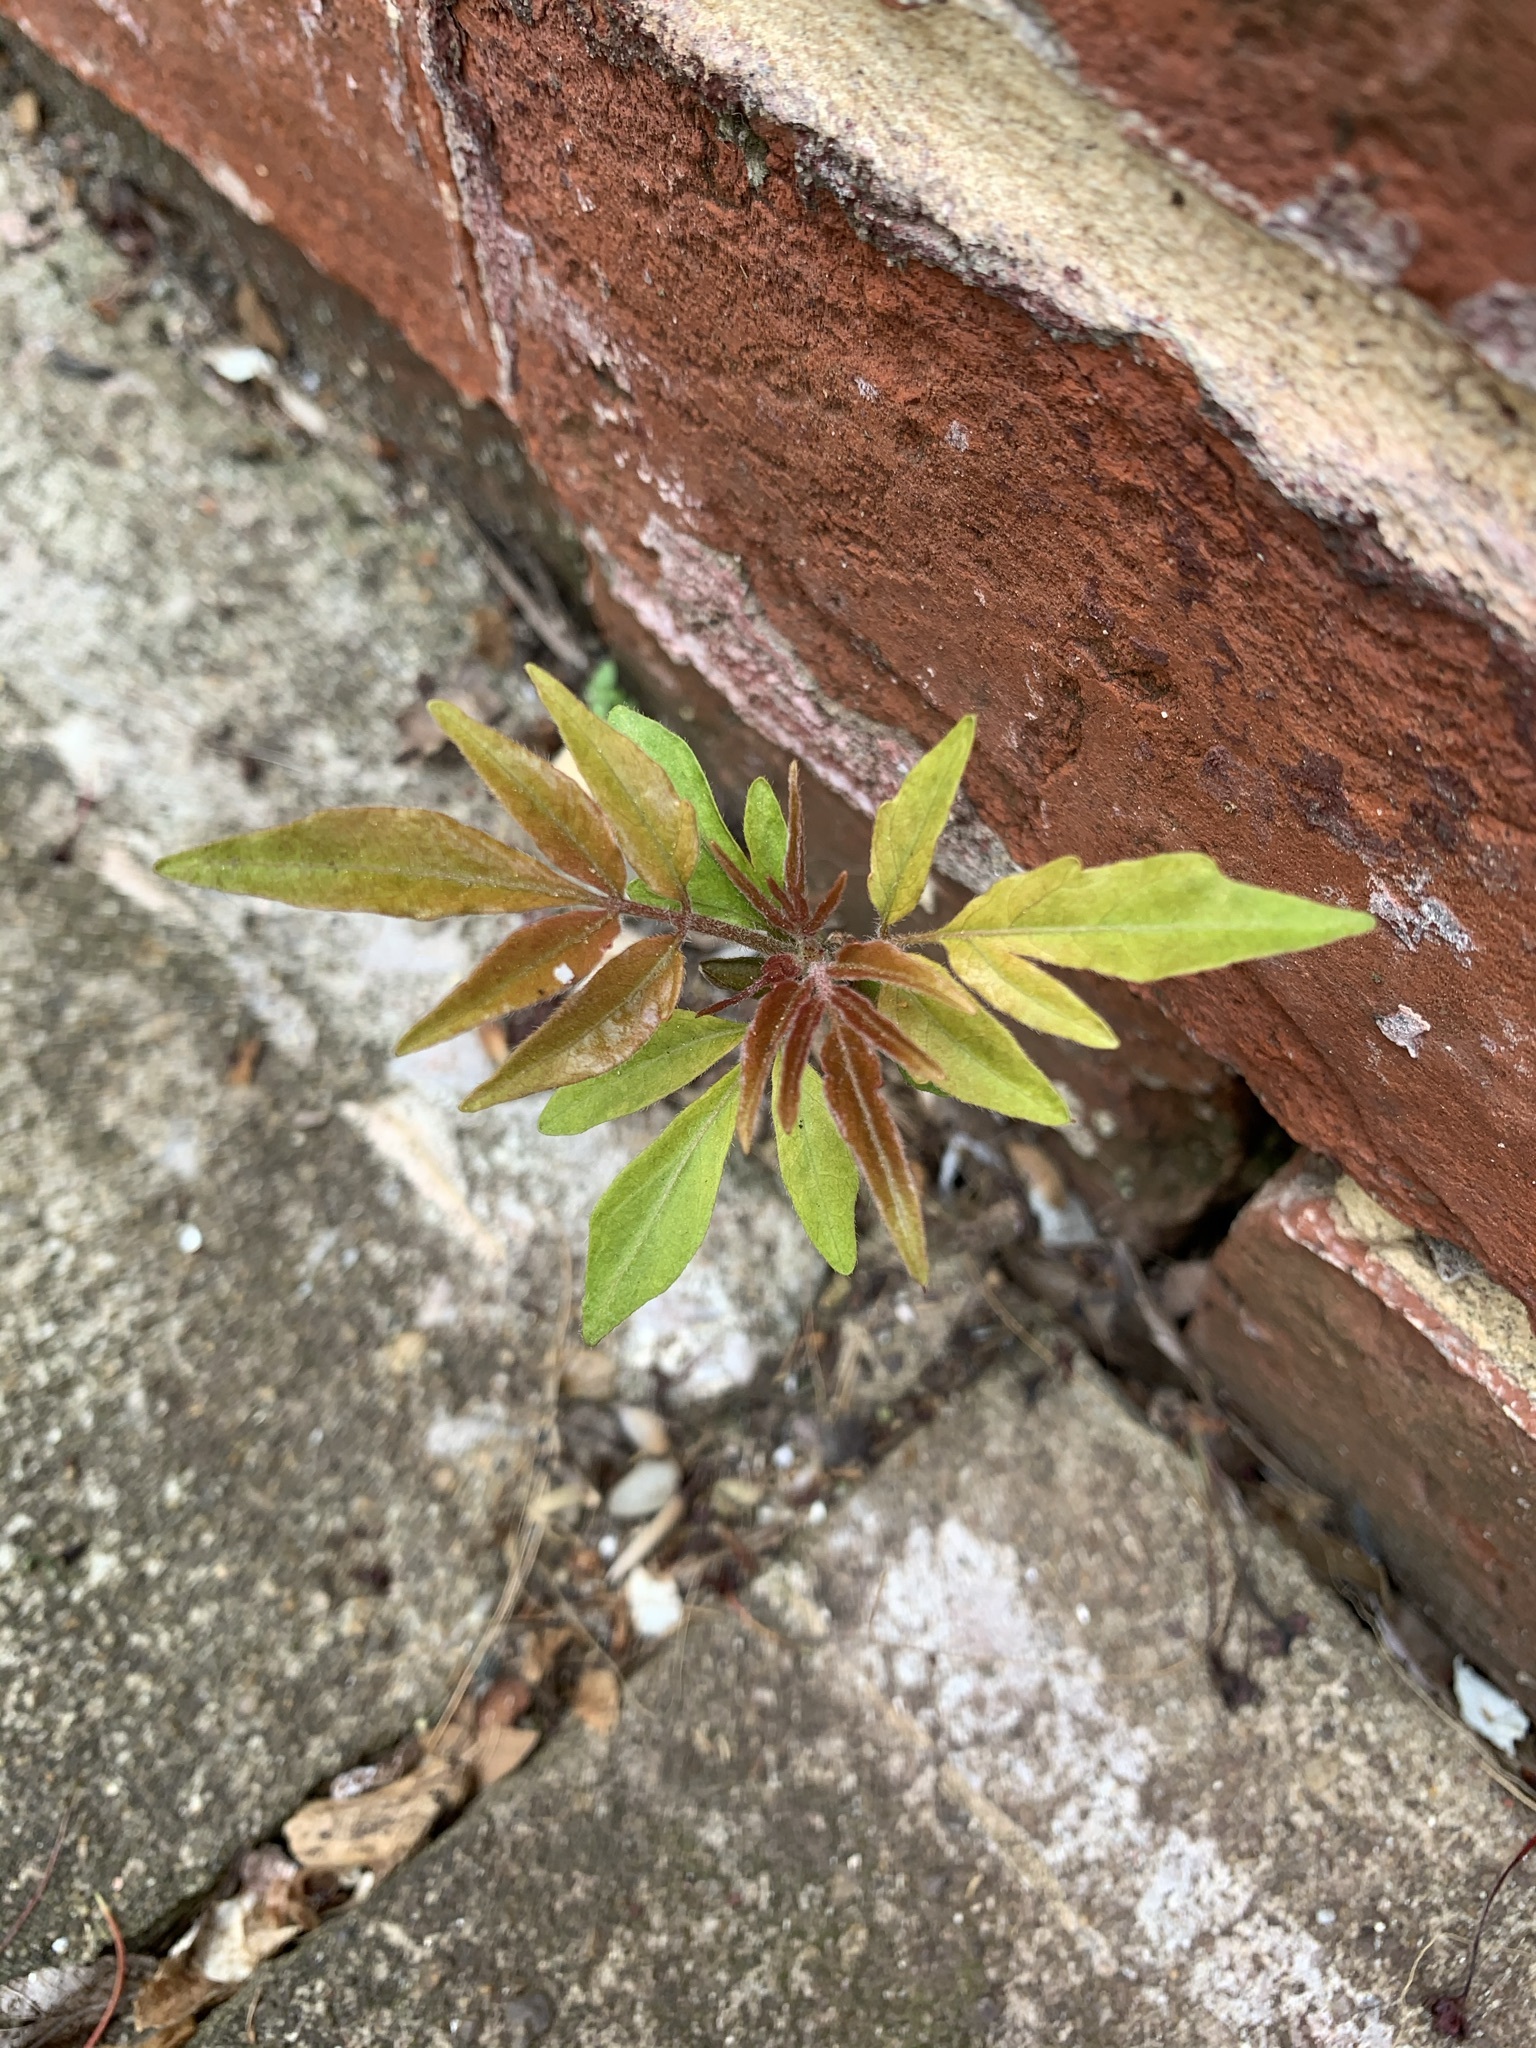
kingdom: Plantae
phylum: Tracheophyta
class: Magnoliopsida
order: Sapindales
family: Simaroubaceae
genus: Ailanthus
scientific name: Ailanthus altissima
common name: Tree-of-heaven
